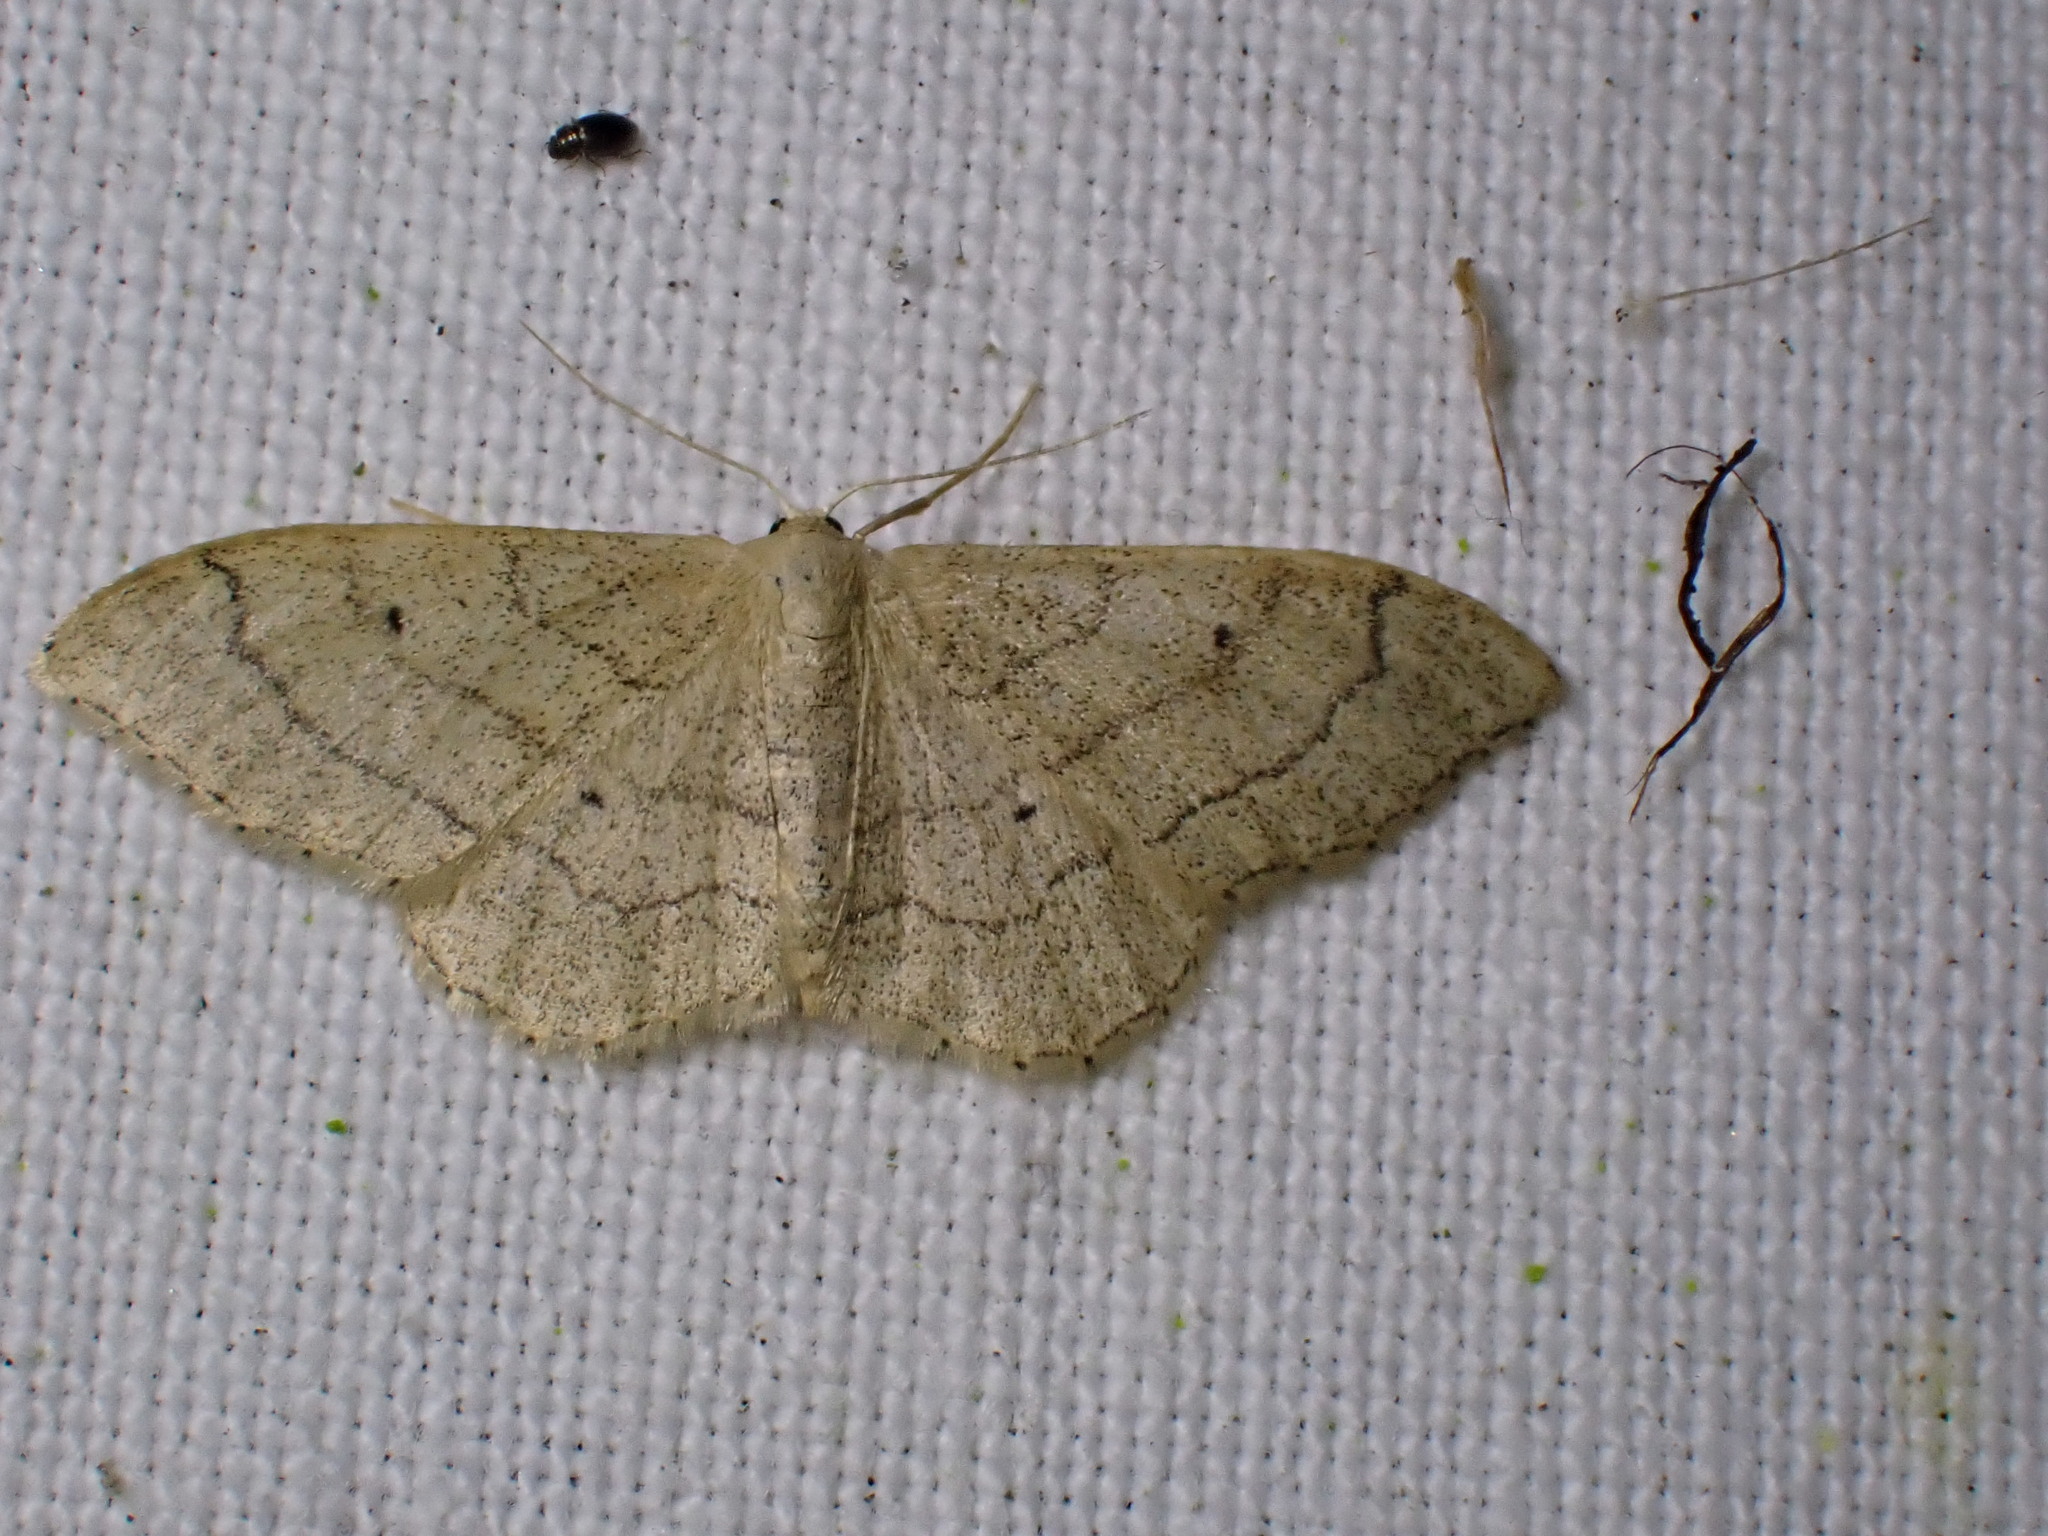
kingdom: Animalia
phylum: Arthropoda
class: Insecta
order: Lepidoptera
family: Geometridae
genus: Idaea
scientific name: Idaea aversata
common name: Riband wave
